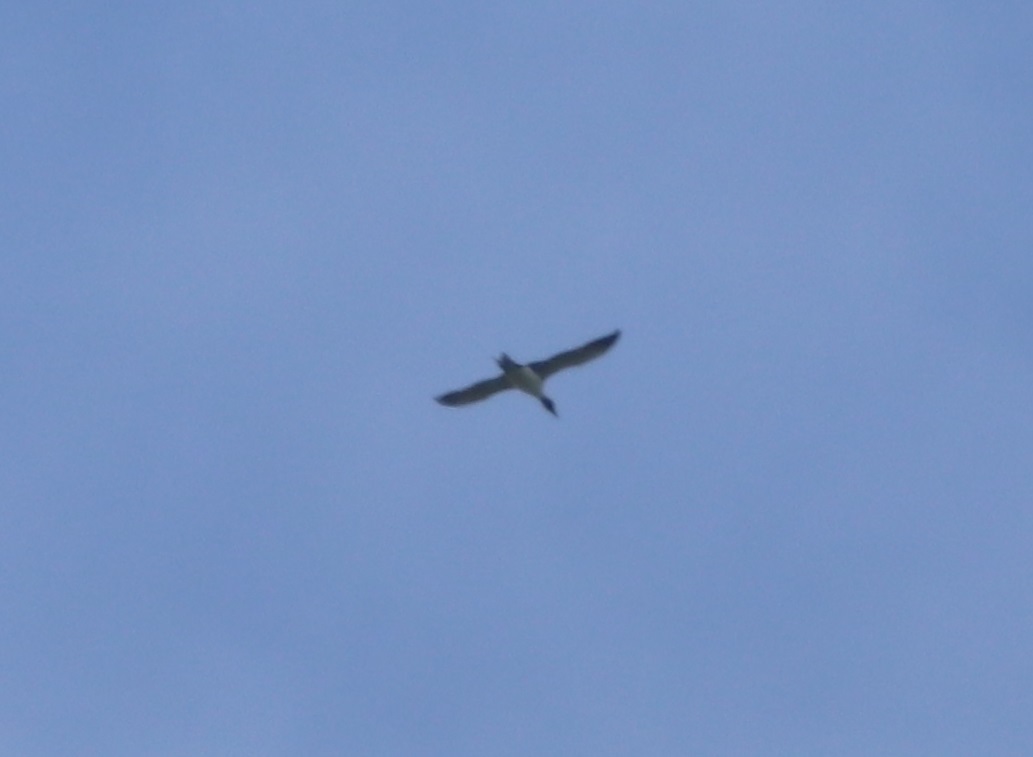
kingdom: Animalia
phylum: Chordata
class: Aves
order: Gaviiformes
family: Gaviidae
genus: Gavia
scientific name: Gavia immer
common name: Common loon
